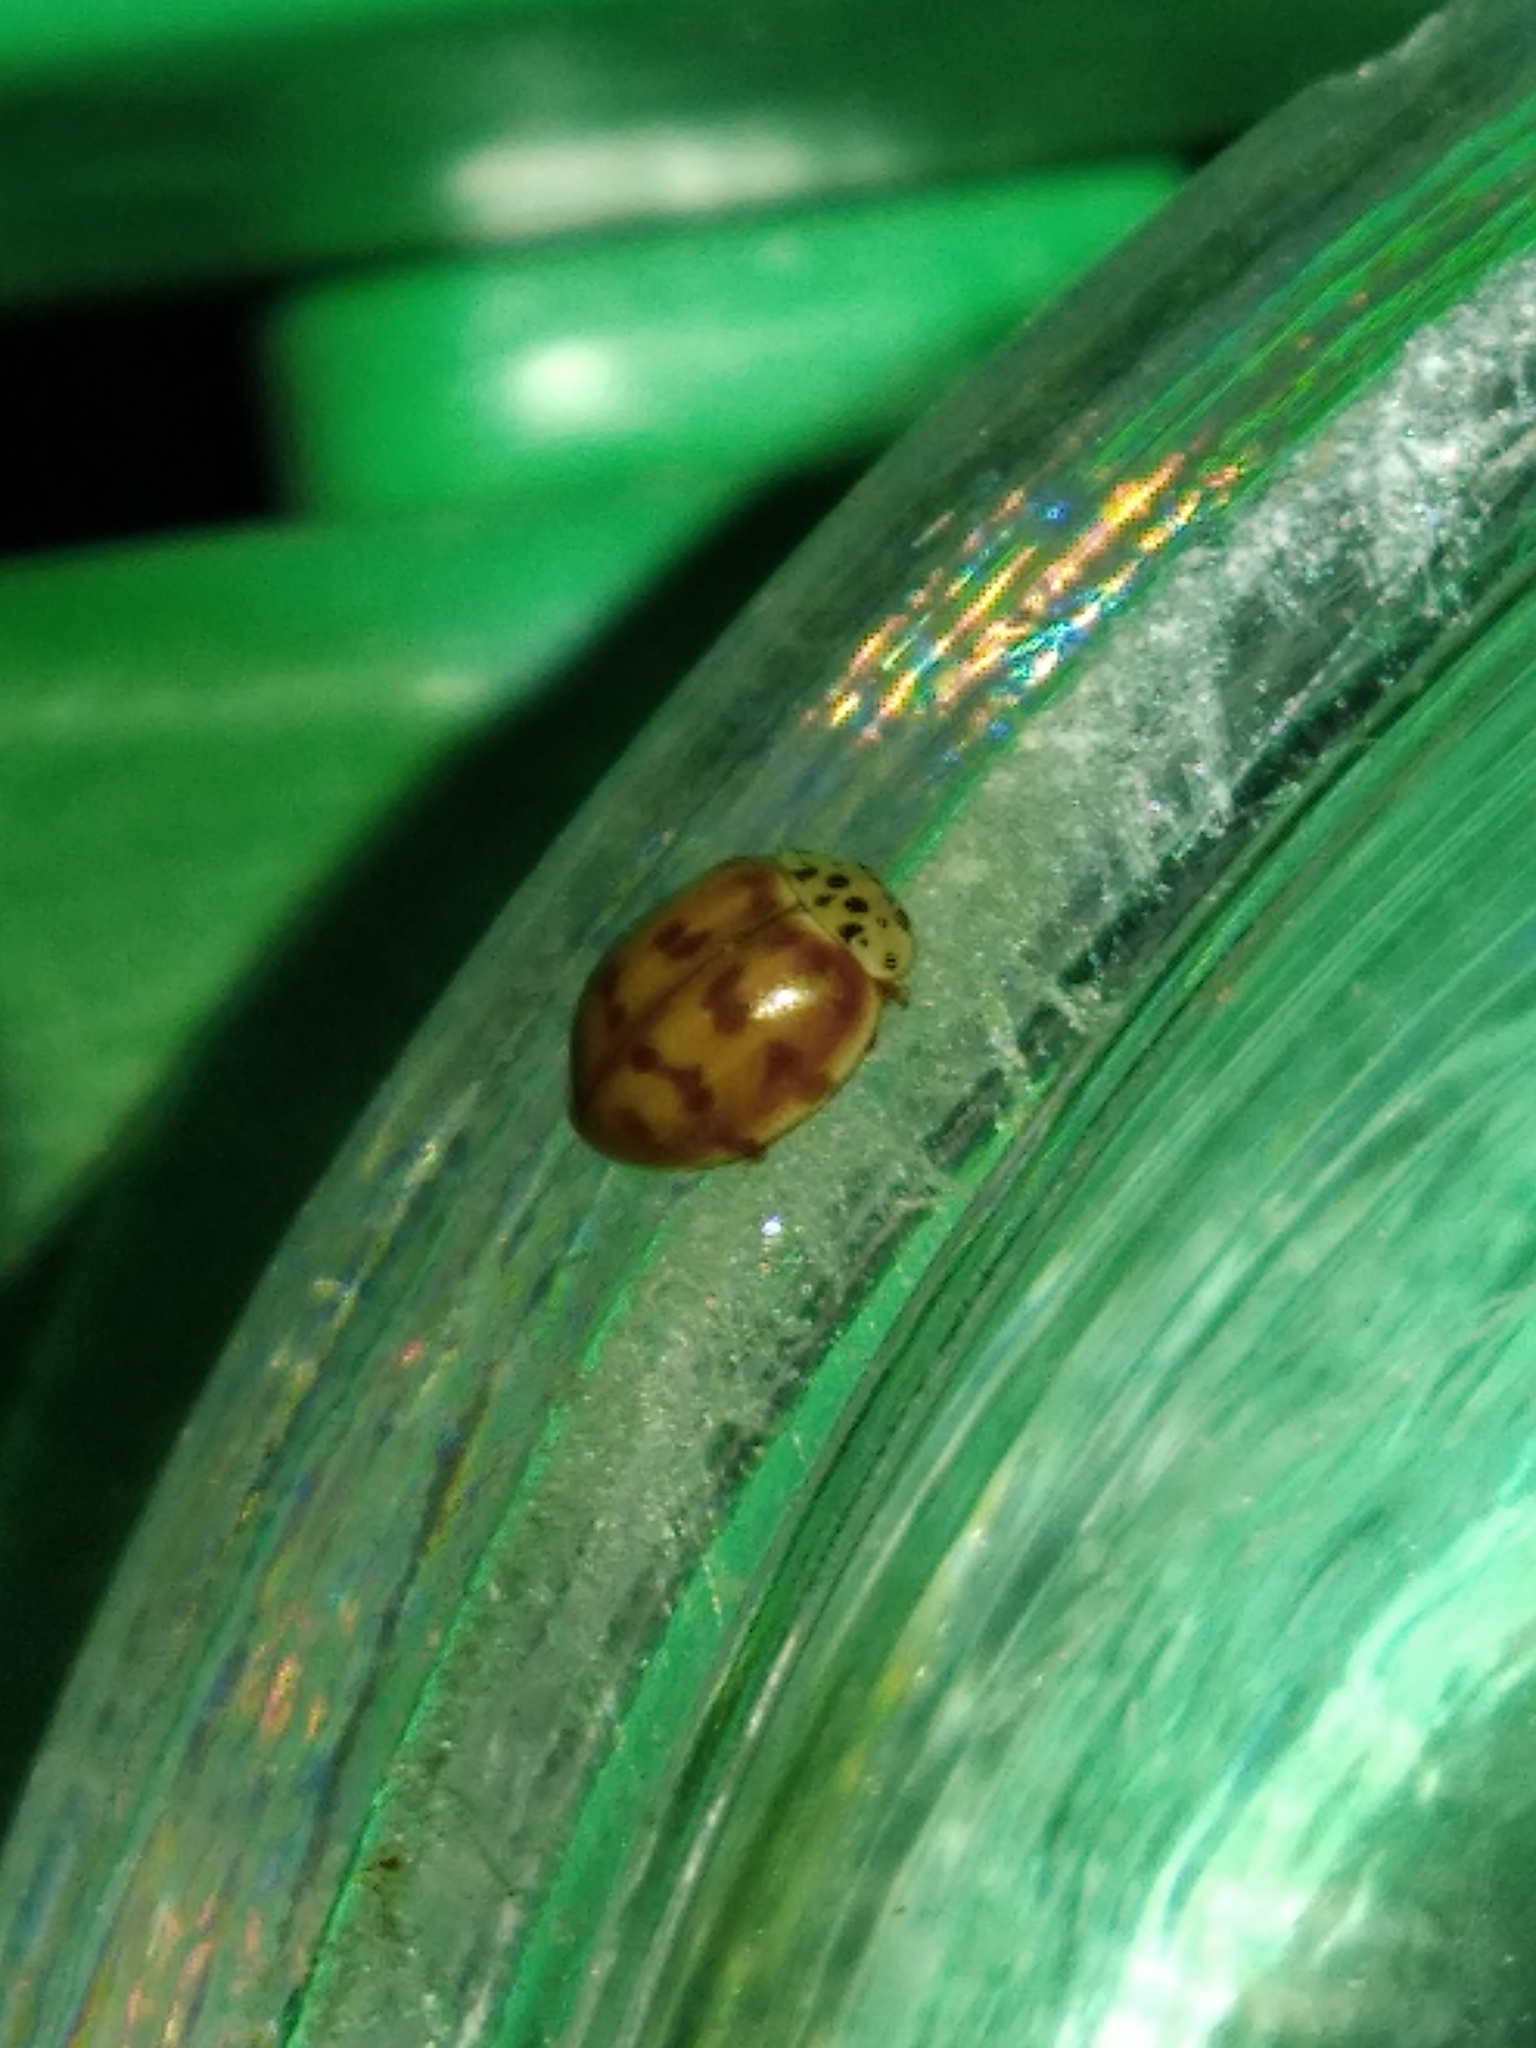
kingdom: Animalia
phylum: Arthropoda
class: Insecta
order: Coleoptera
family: Coccinellidae
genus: Harmonia
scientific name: Harmonia quadripunctata
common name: Cream-streaked ladybird
